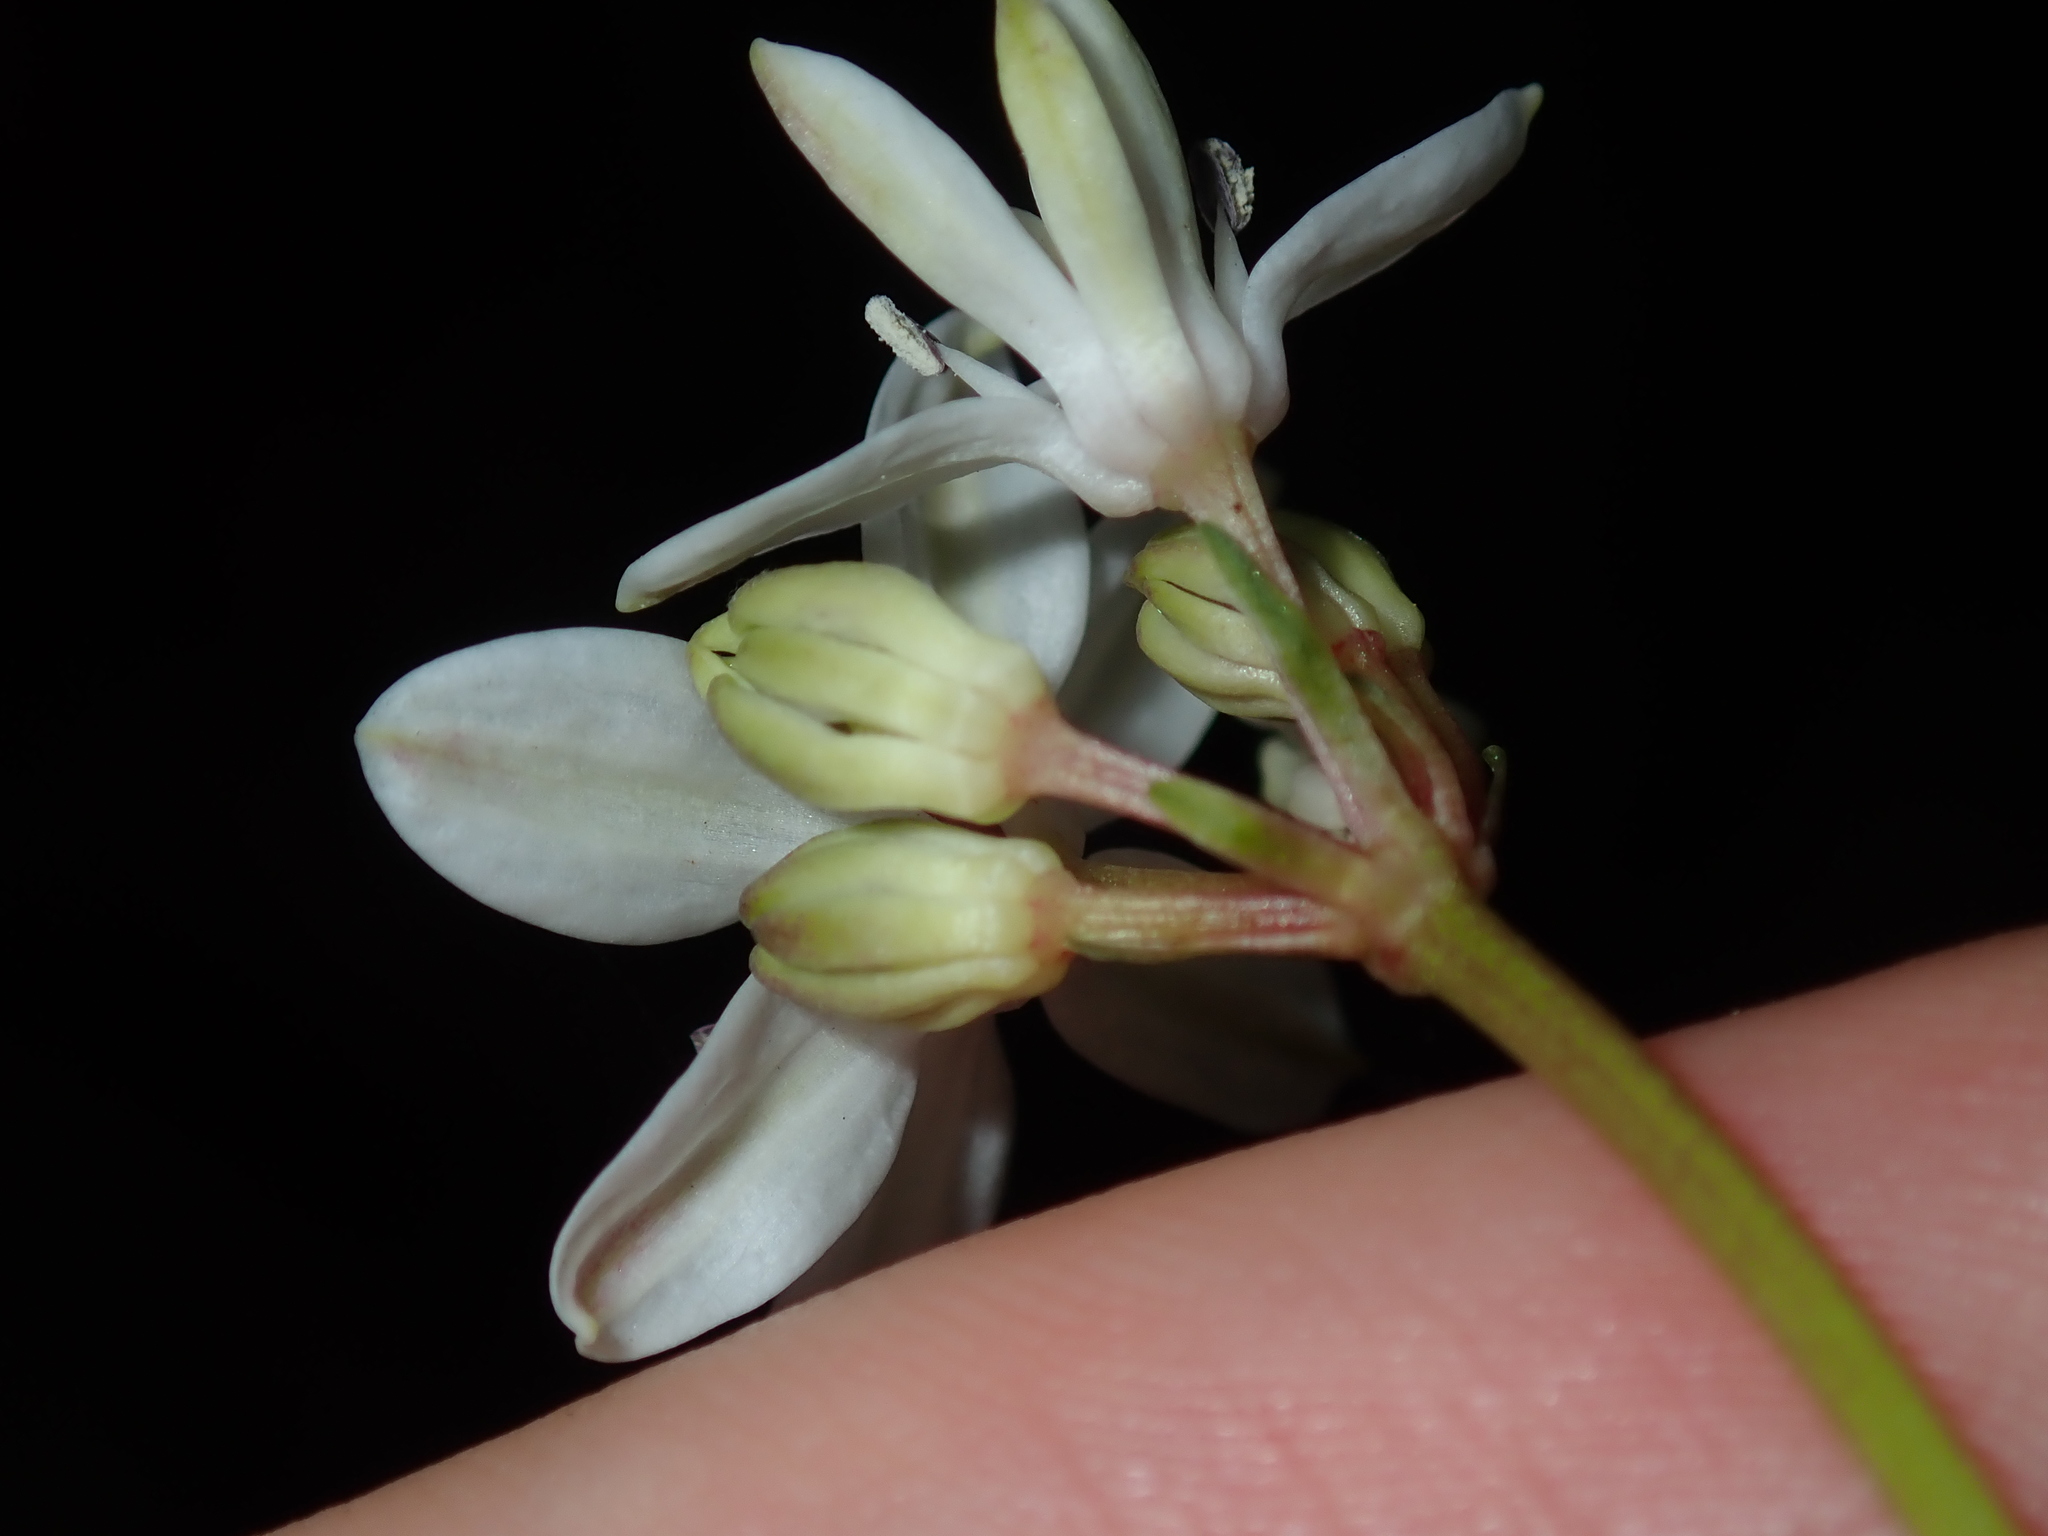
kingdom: Plantae
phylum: Tracheophyta
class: Liliopsida
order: Liliales
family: Colchicaceae
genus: Burchardia
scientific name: Burchardia umbellata
